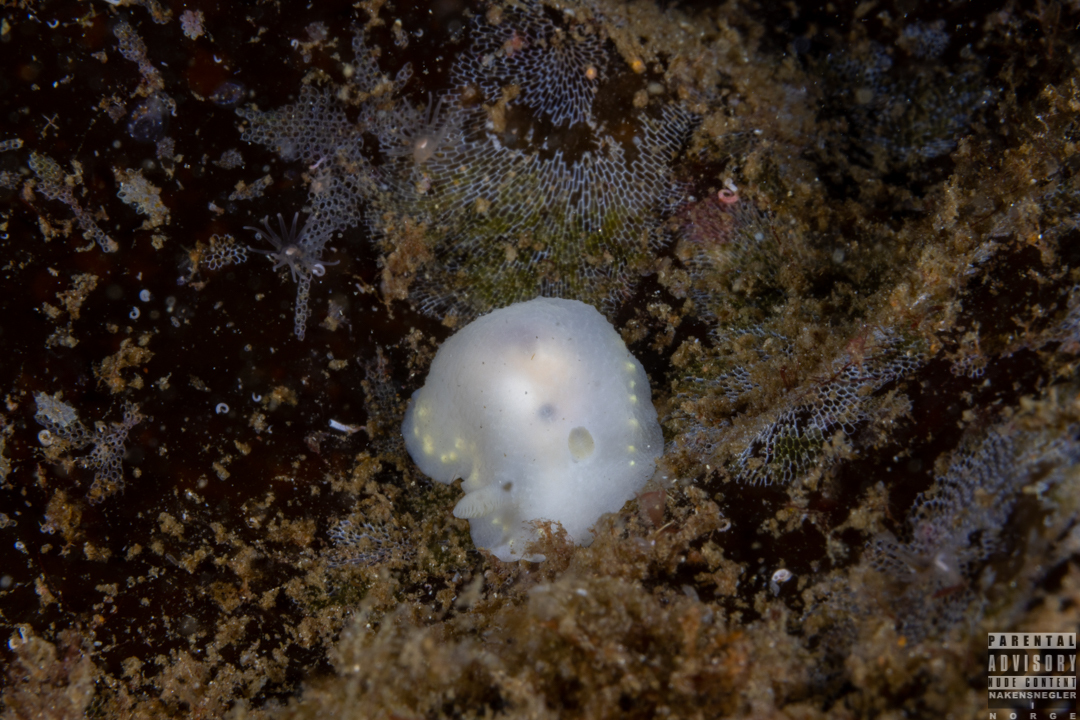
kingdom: Animalia
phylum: Mollusca
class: Gastropoda
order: Nudibranchia
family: Cadlinidae
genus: Cadlina
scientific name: Cadlina laevis
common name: White atlantic cadlina
